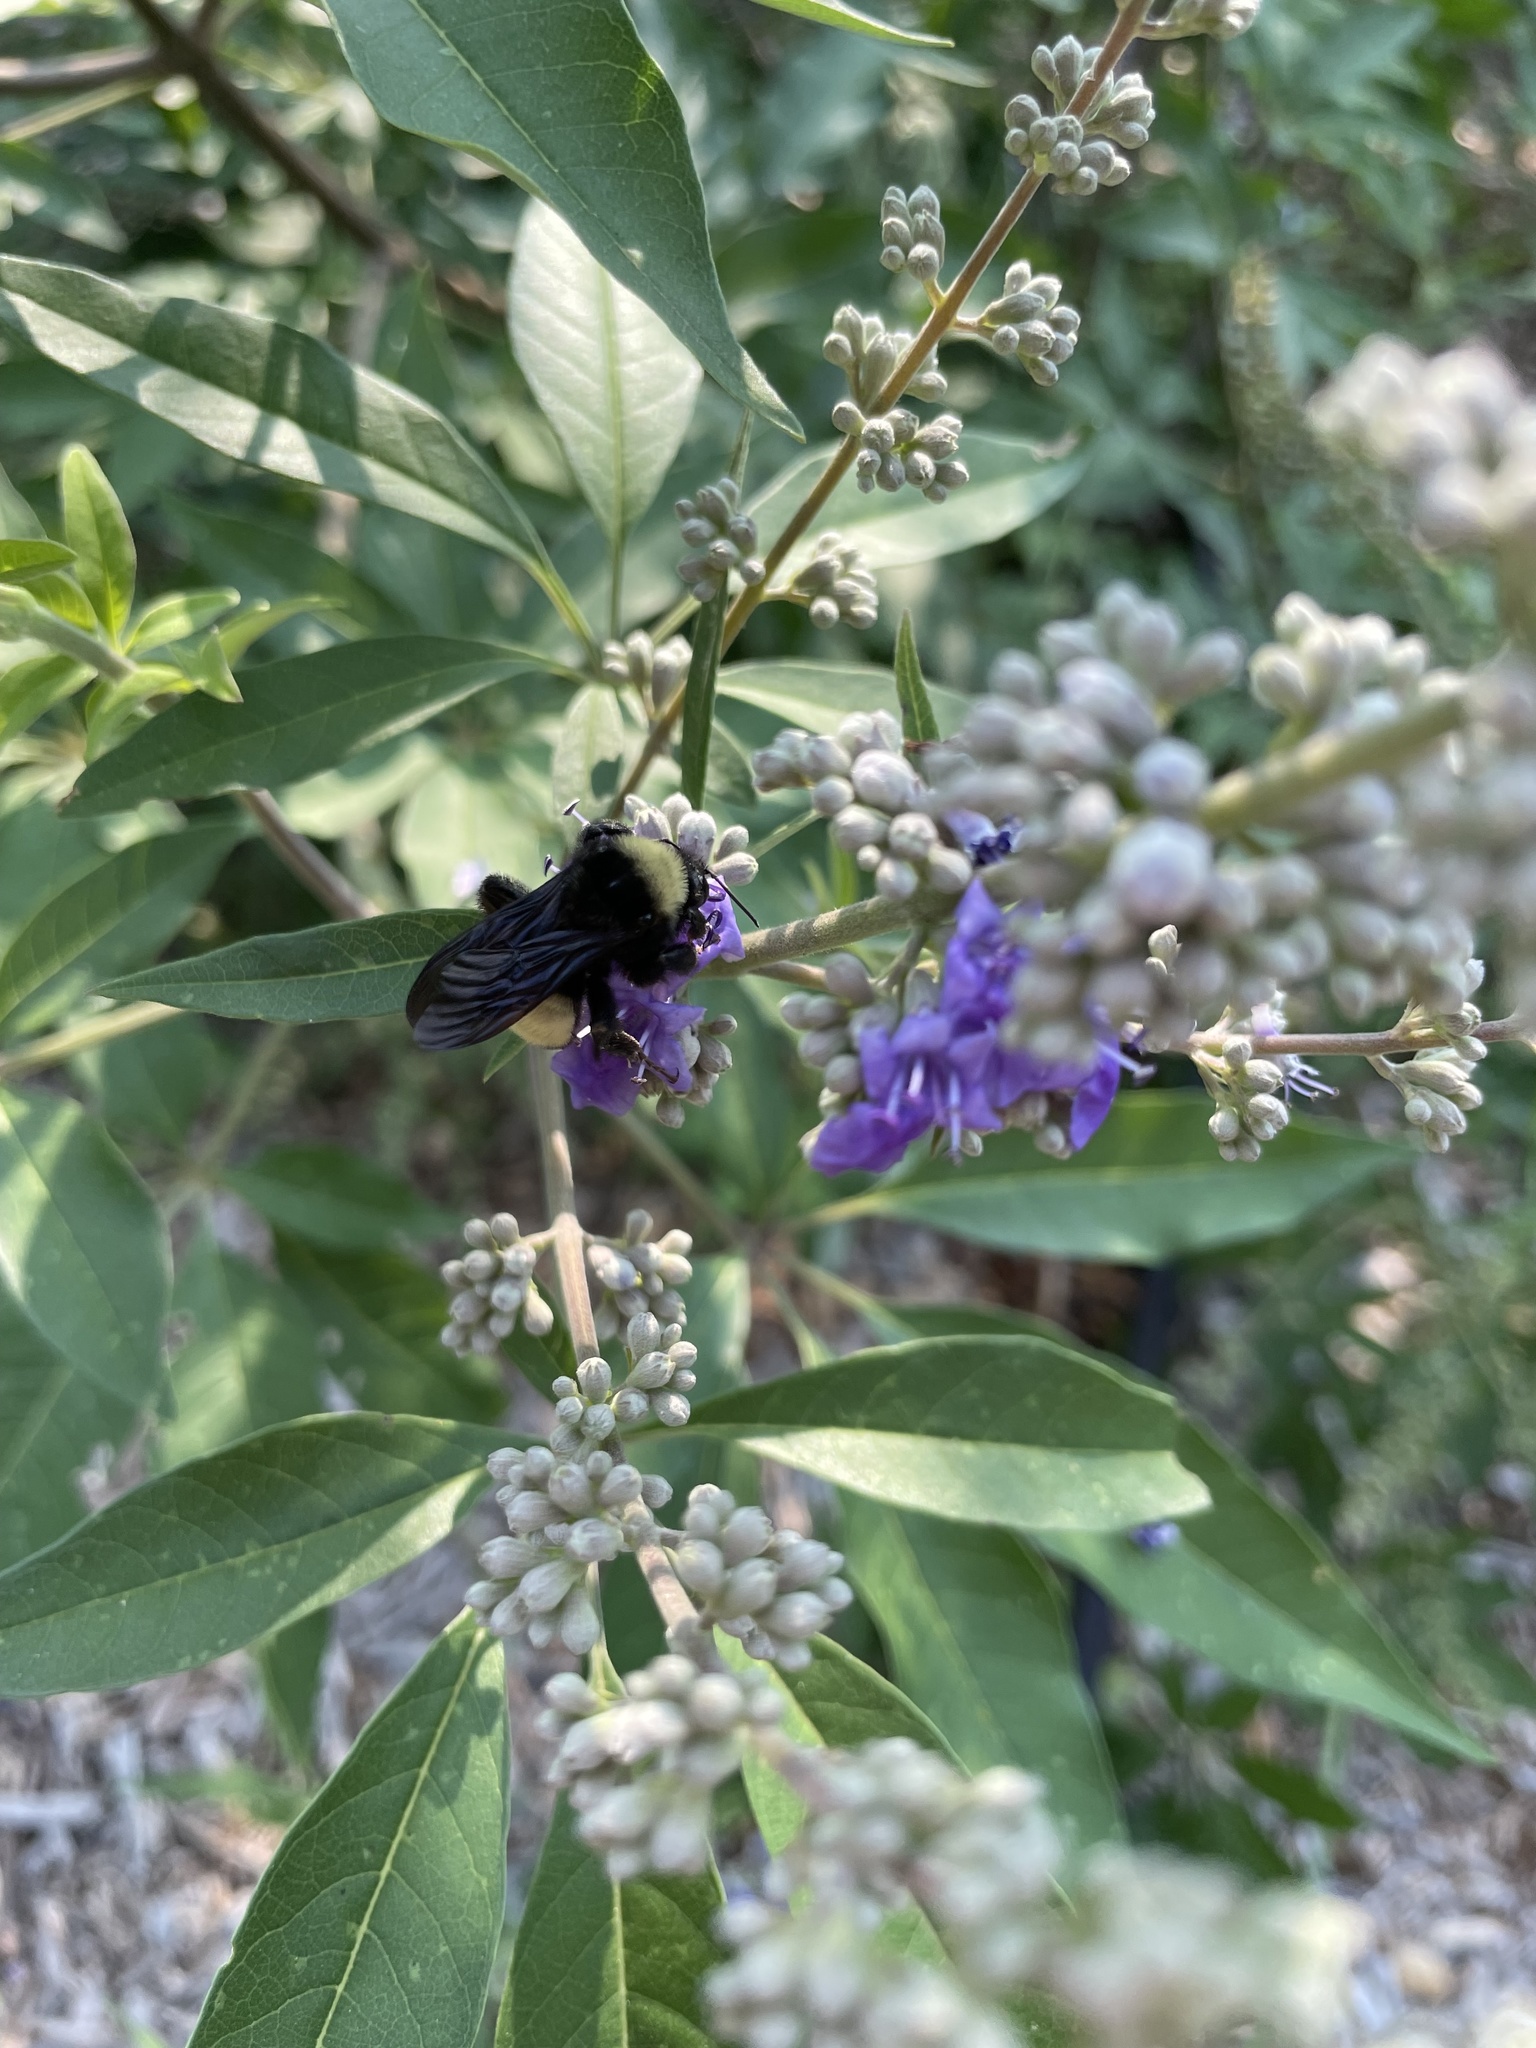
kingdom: Animalia
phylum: Arthropoda
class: Insecta
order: Hymenoptera
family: Apidae
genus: Bombus
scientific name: Bombus pensylvanicus
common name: Bumble bee
